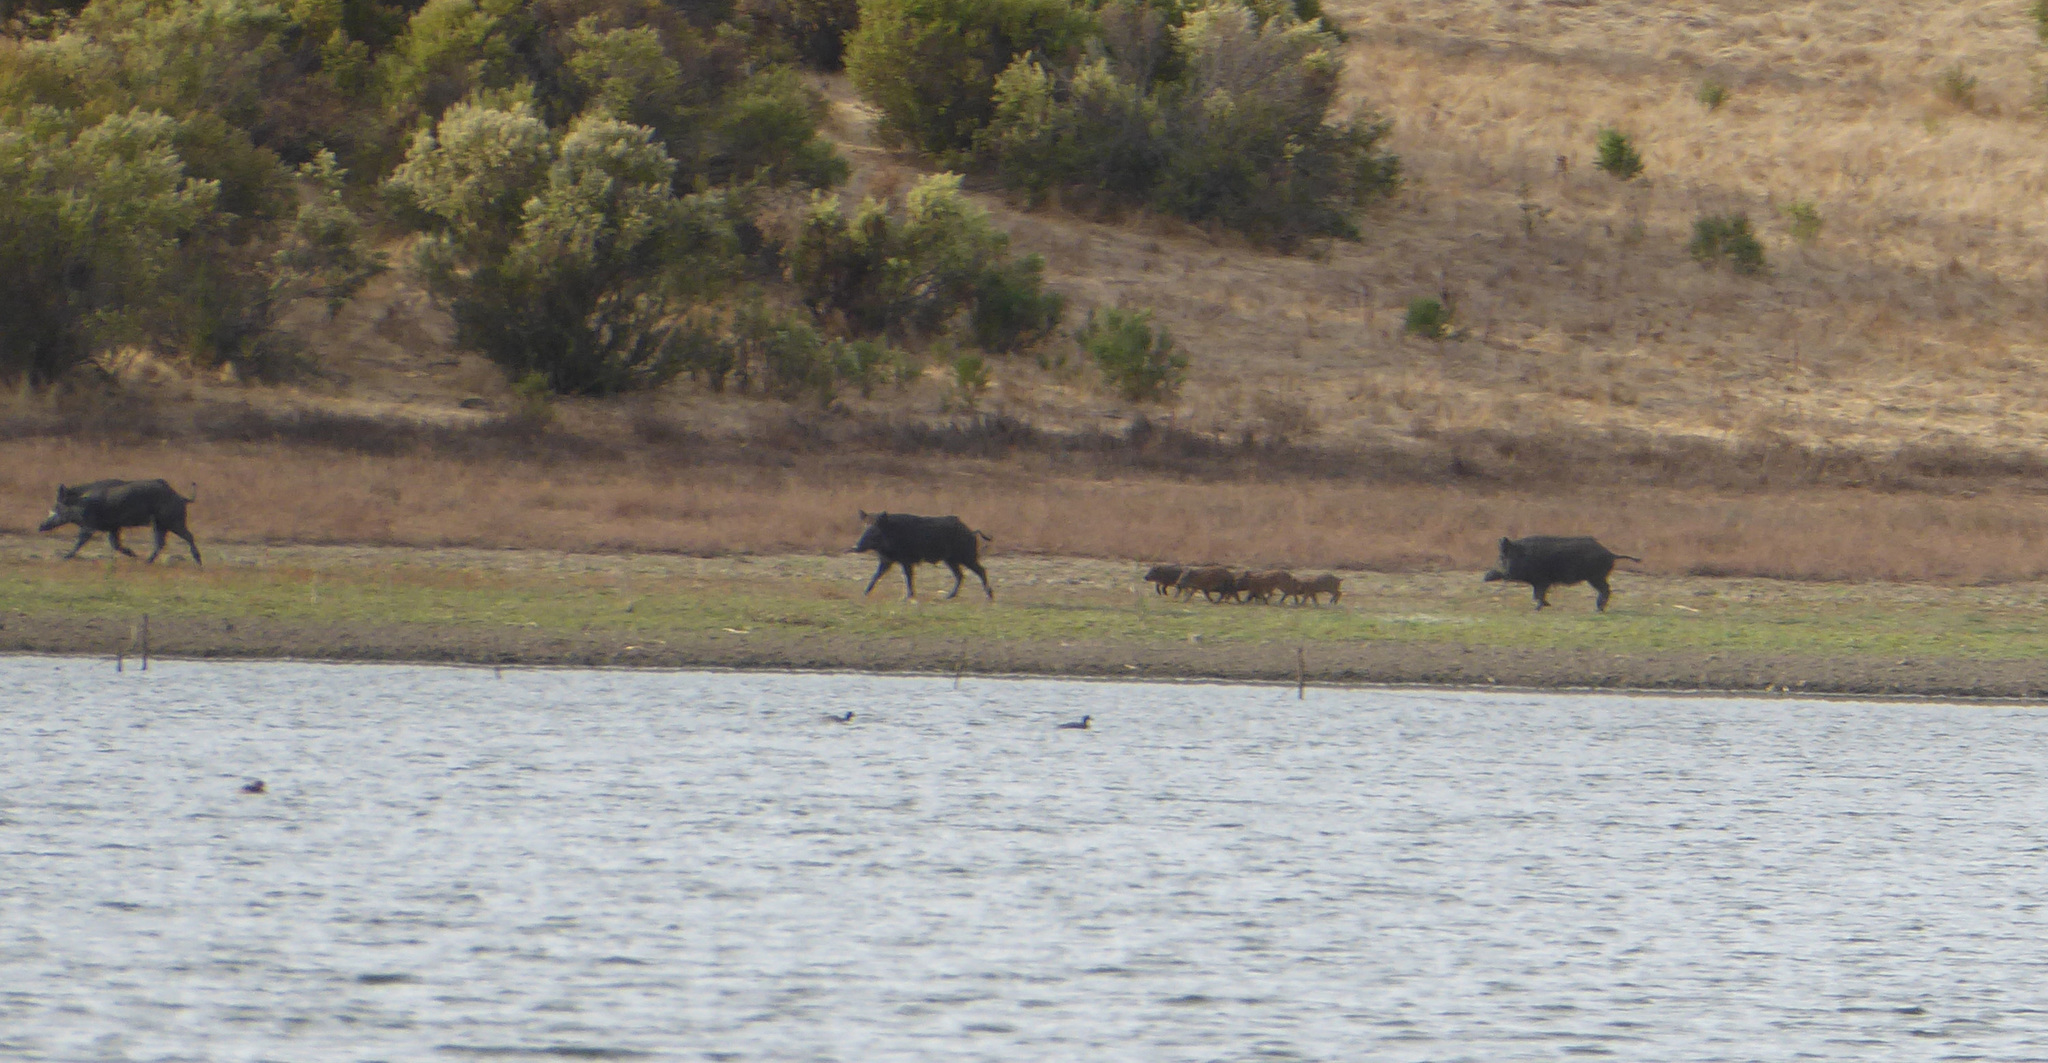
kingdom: Animalia
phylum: Chordata
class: Mammalia
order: Artiodactyla
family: Suidae
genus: Sus
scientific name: Sus scrofa
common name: Wild boar
